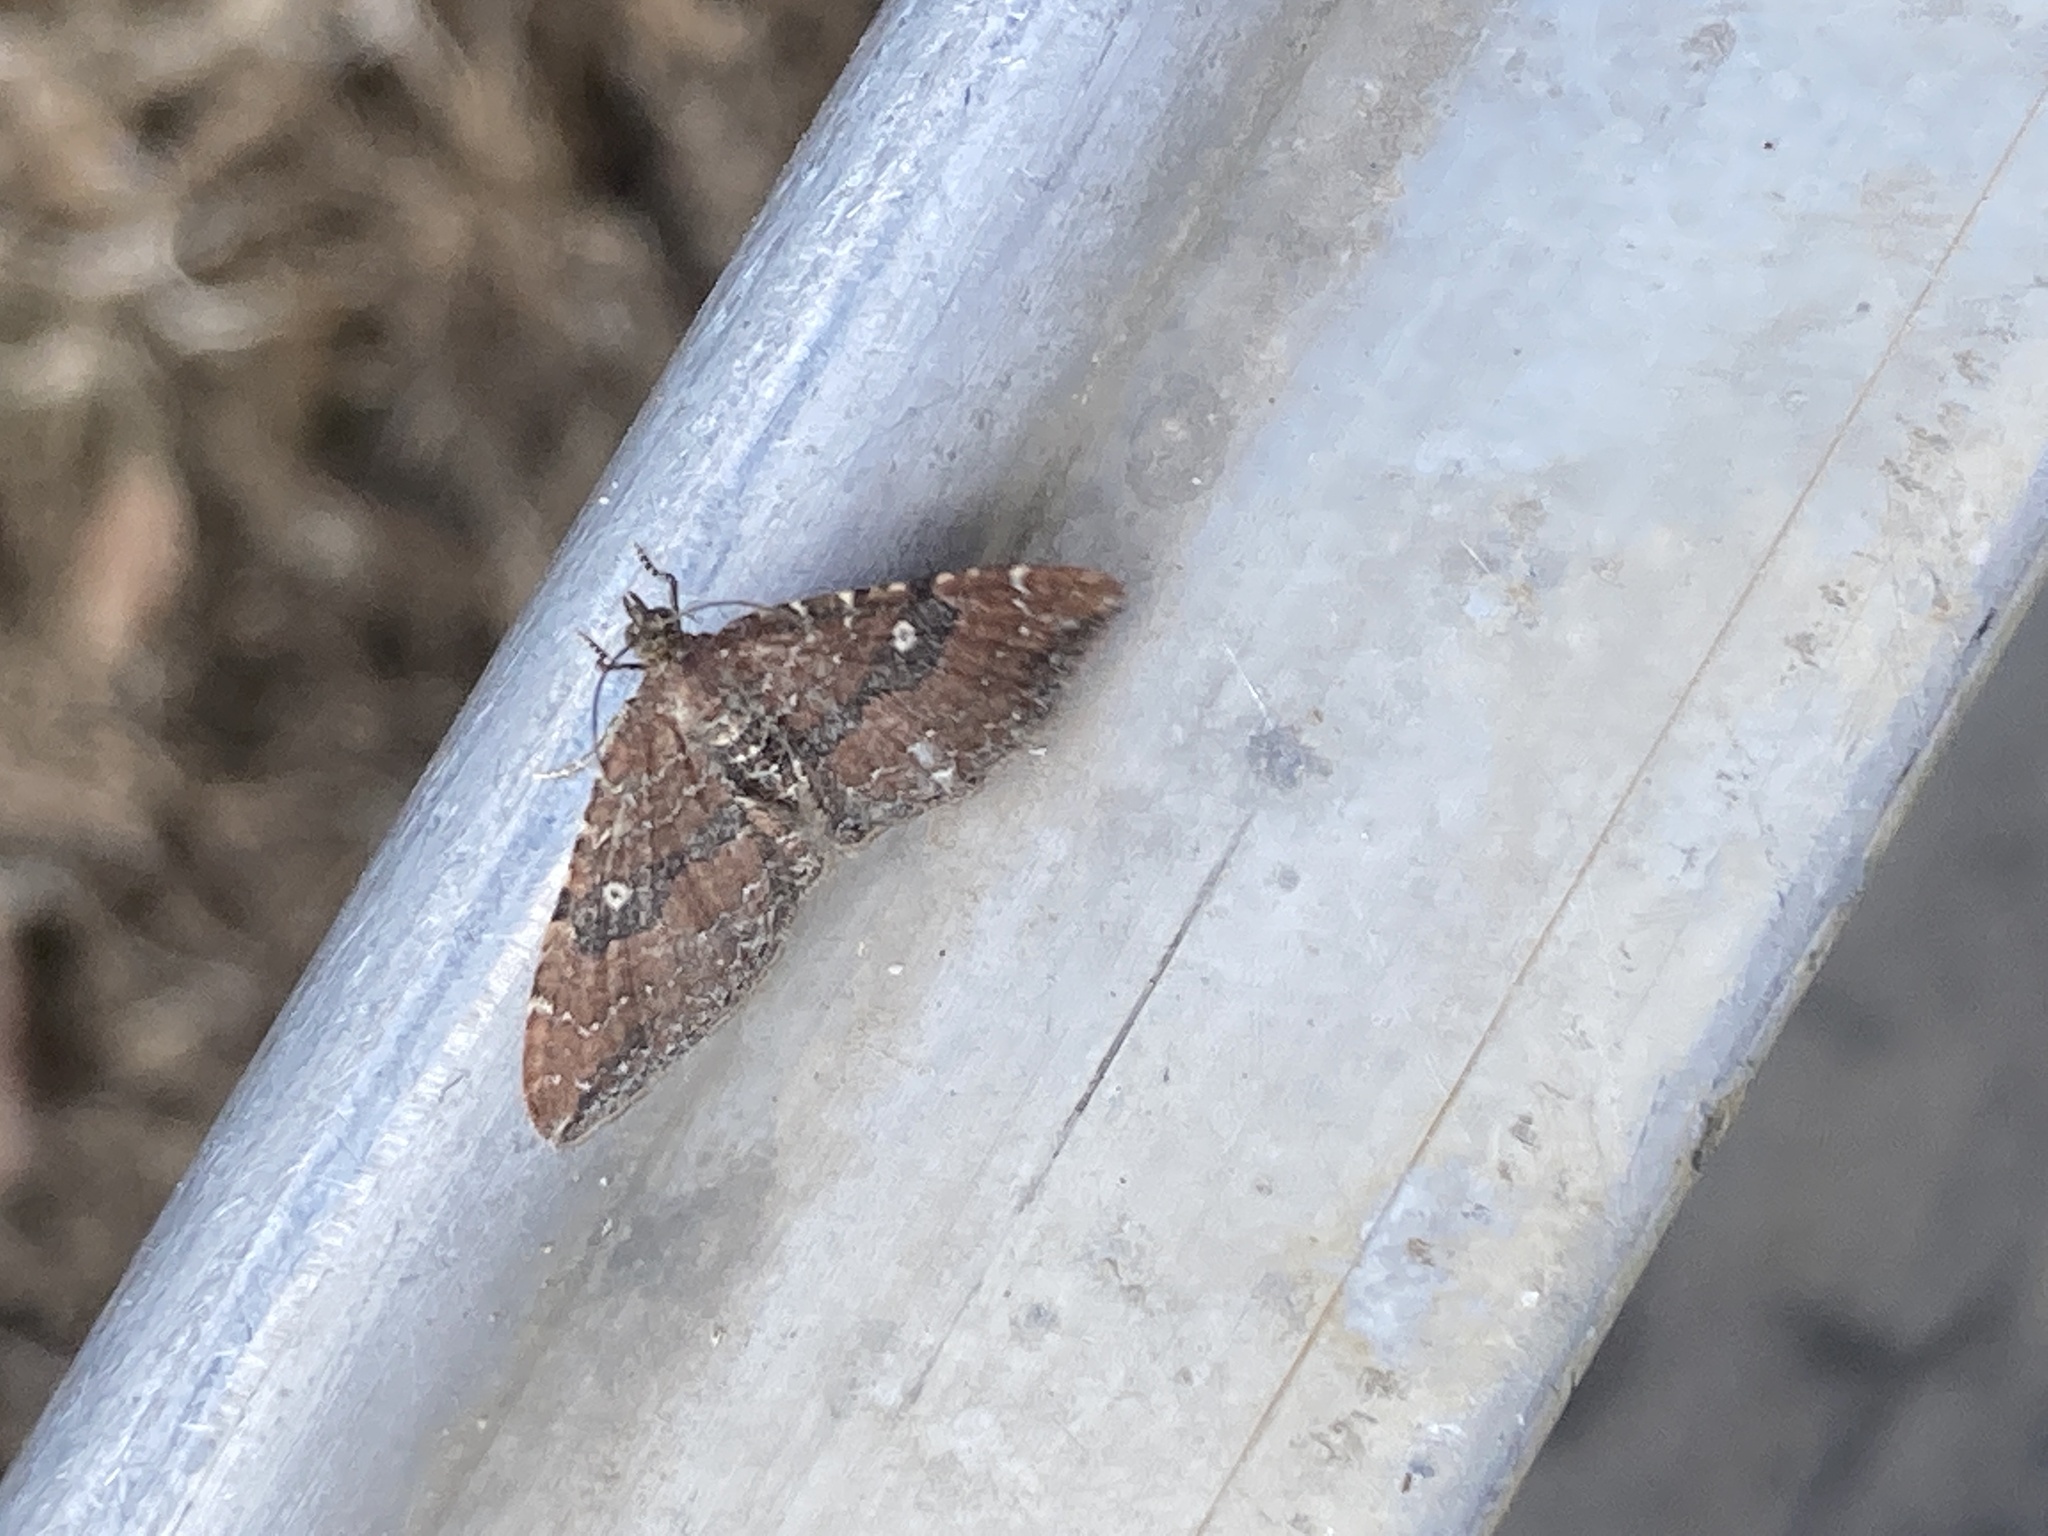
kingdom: Animalia
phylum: Arthropoda
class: Insecta
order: Lepidoptera
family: Geometridae
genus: Orthonama
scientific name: Orthonama obstipata
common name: The gem
